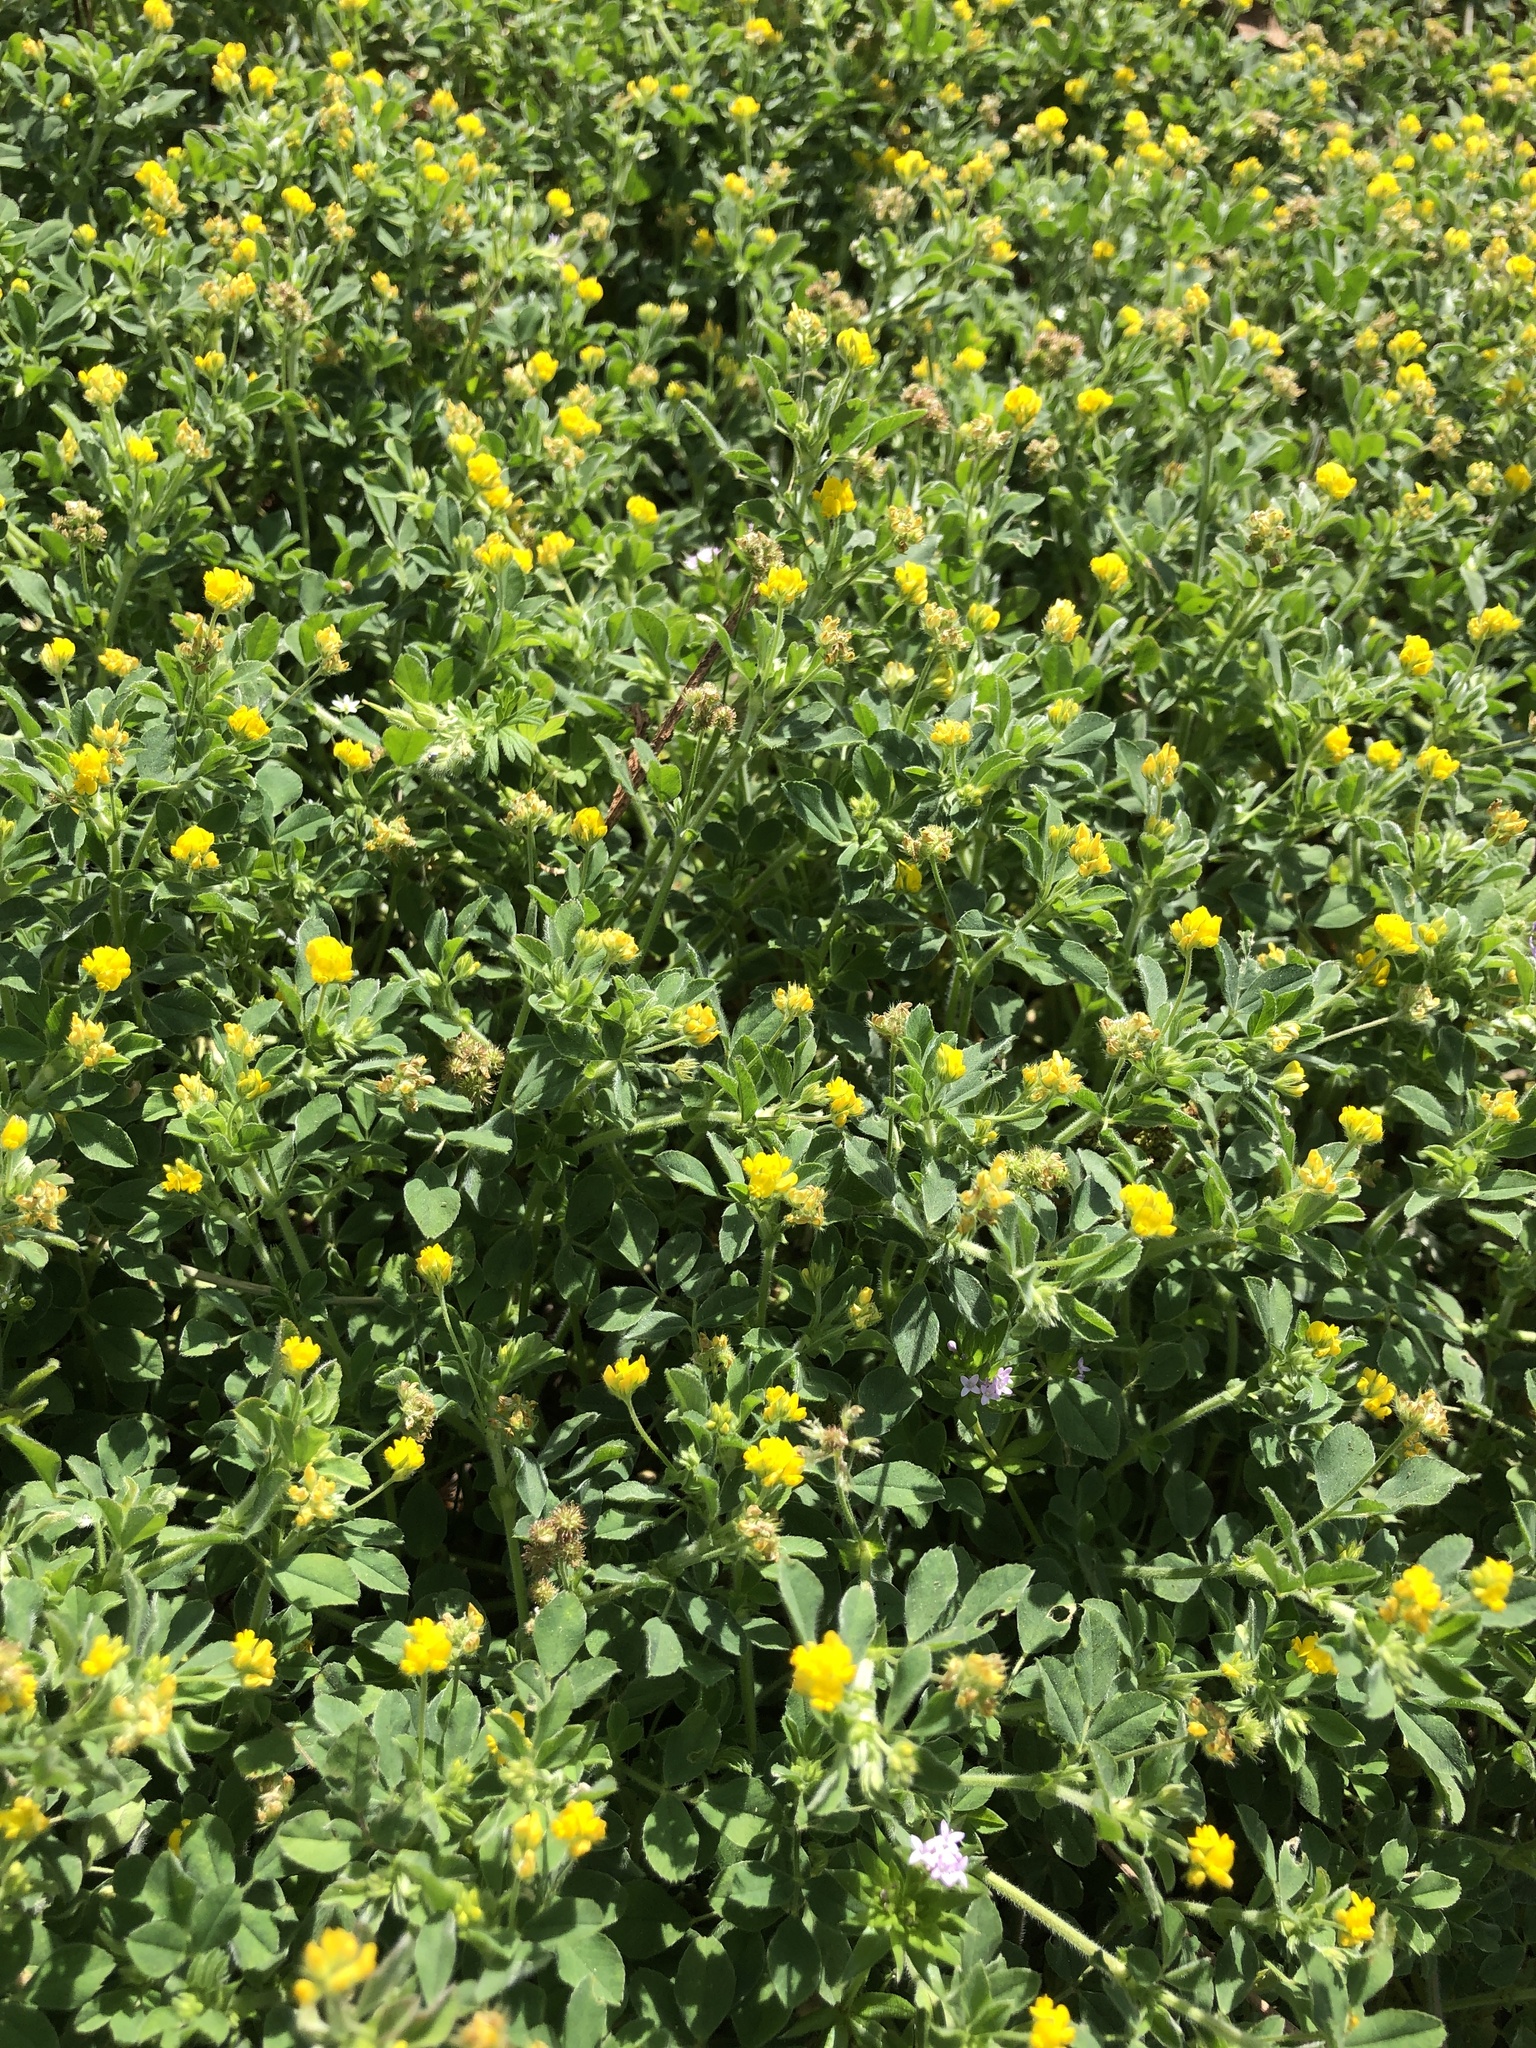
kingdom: Plantae
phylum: Tracheophyta
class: Magnoliopsida
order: Fabales
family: Fabaceae
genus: Medicago
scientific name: Medicago minima
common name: Little bur-clover
